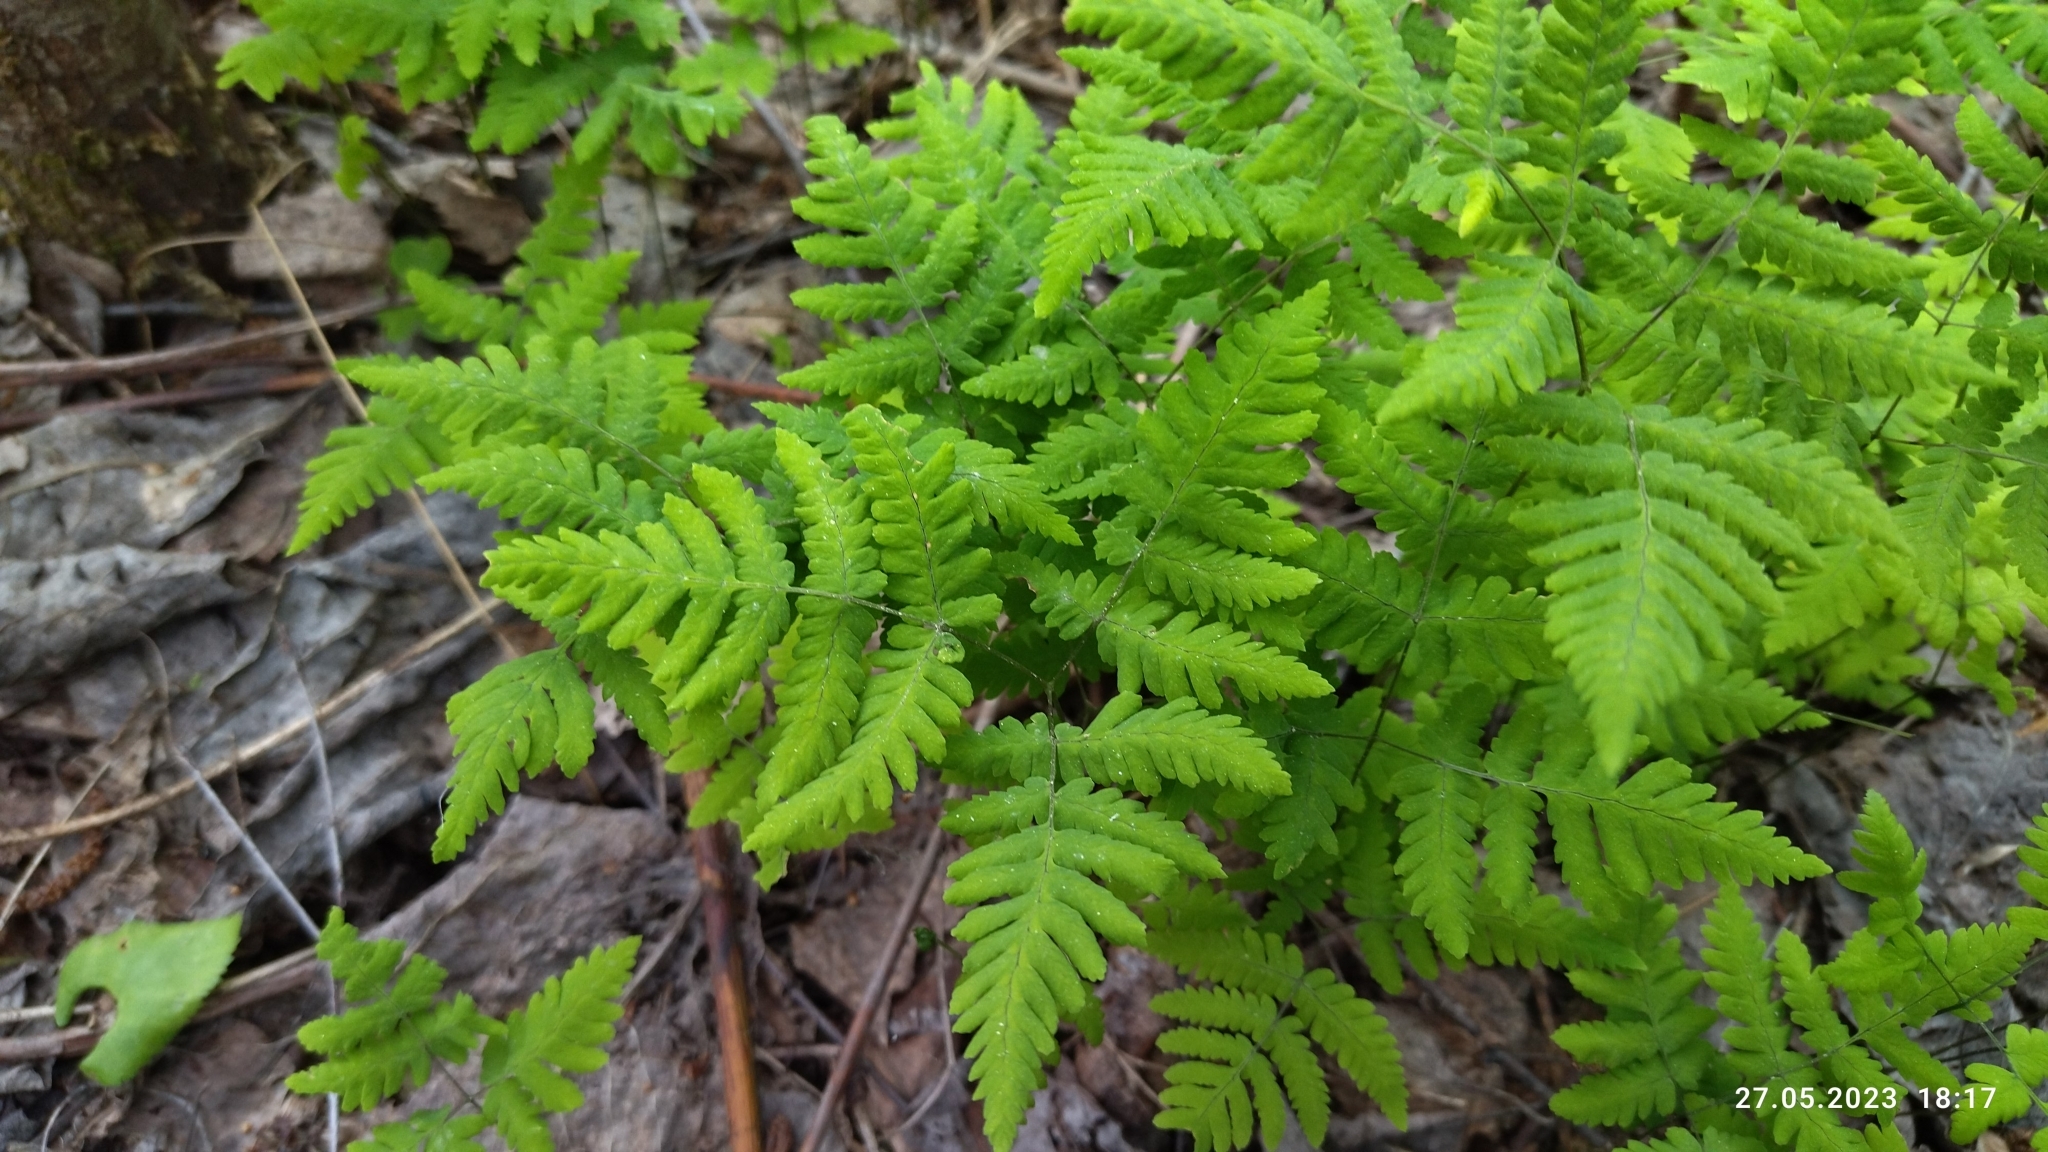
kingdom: Plantae
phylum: Tracheophyta
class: Polypodiopsida
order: Polypodiales
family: Cystopteridaceae
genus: Gymnocarpium
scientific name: Gymnocarpium dryopteris
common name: Oak fern
